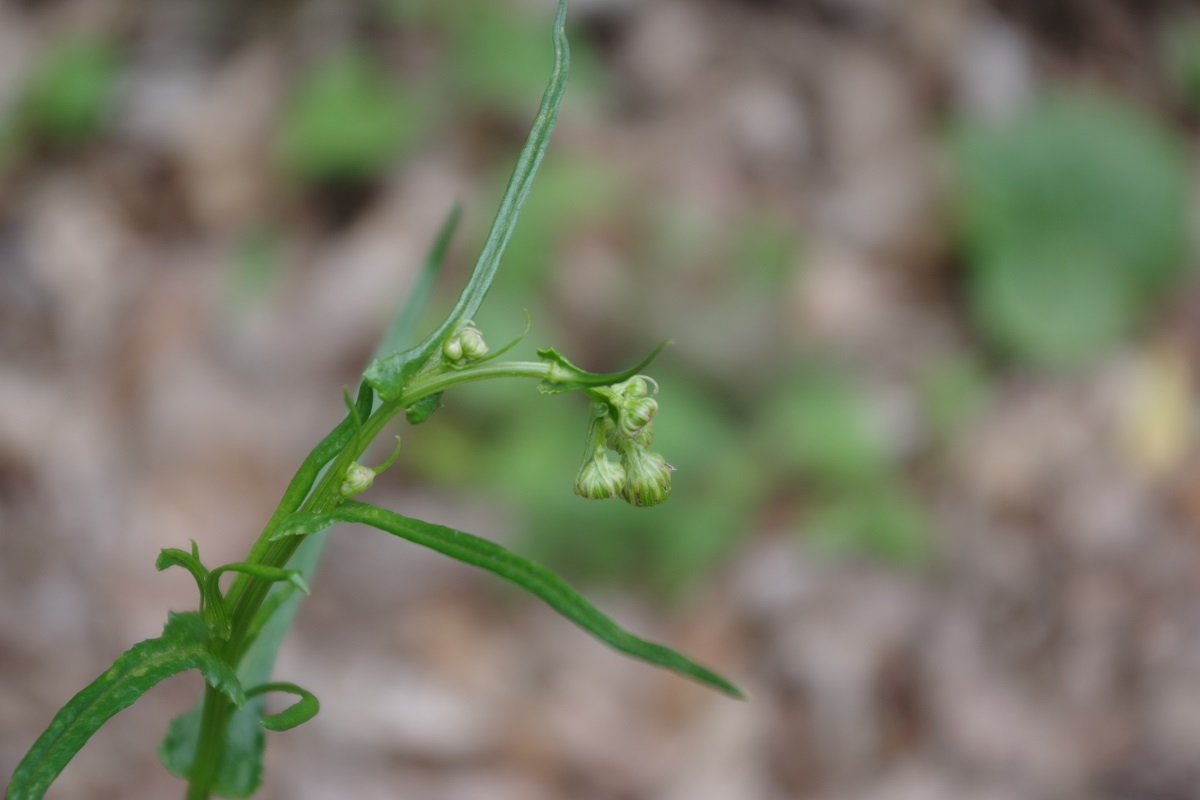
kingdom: Plantae
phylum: Tracheophyta
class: Magnoliopsida
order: Asterales
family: Asteraceae
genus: Senecio
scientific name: Senecio inaequidens
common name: Narrow-leaved ragwort
